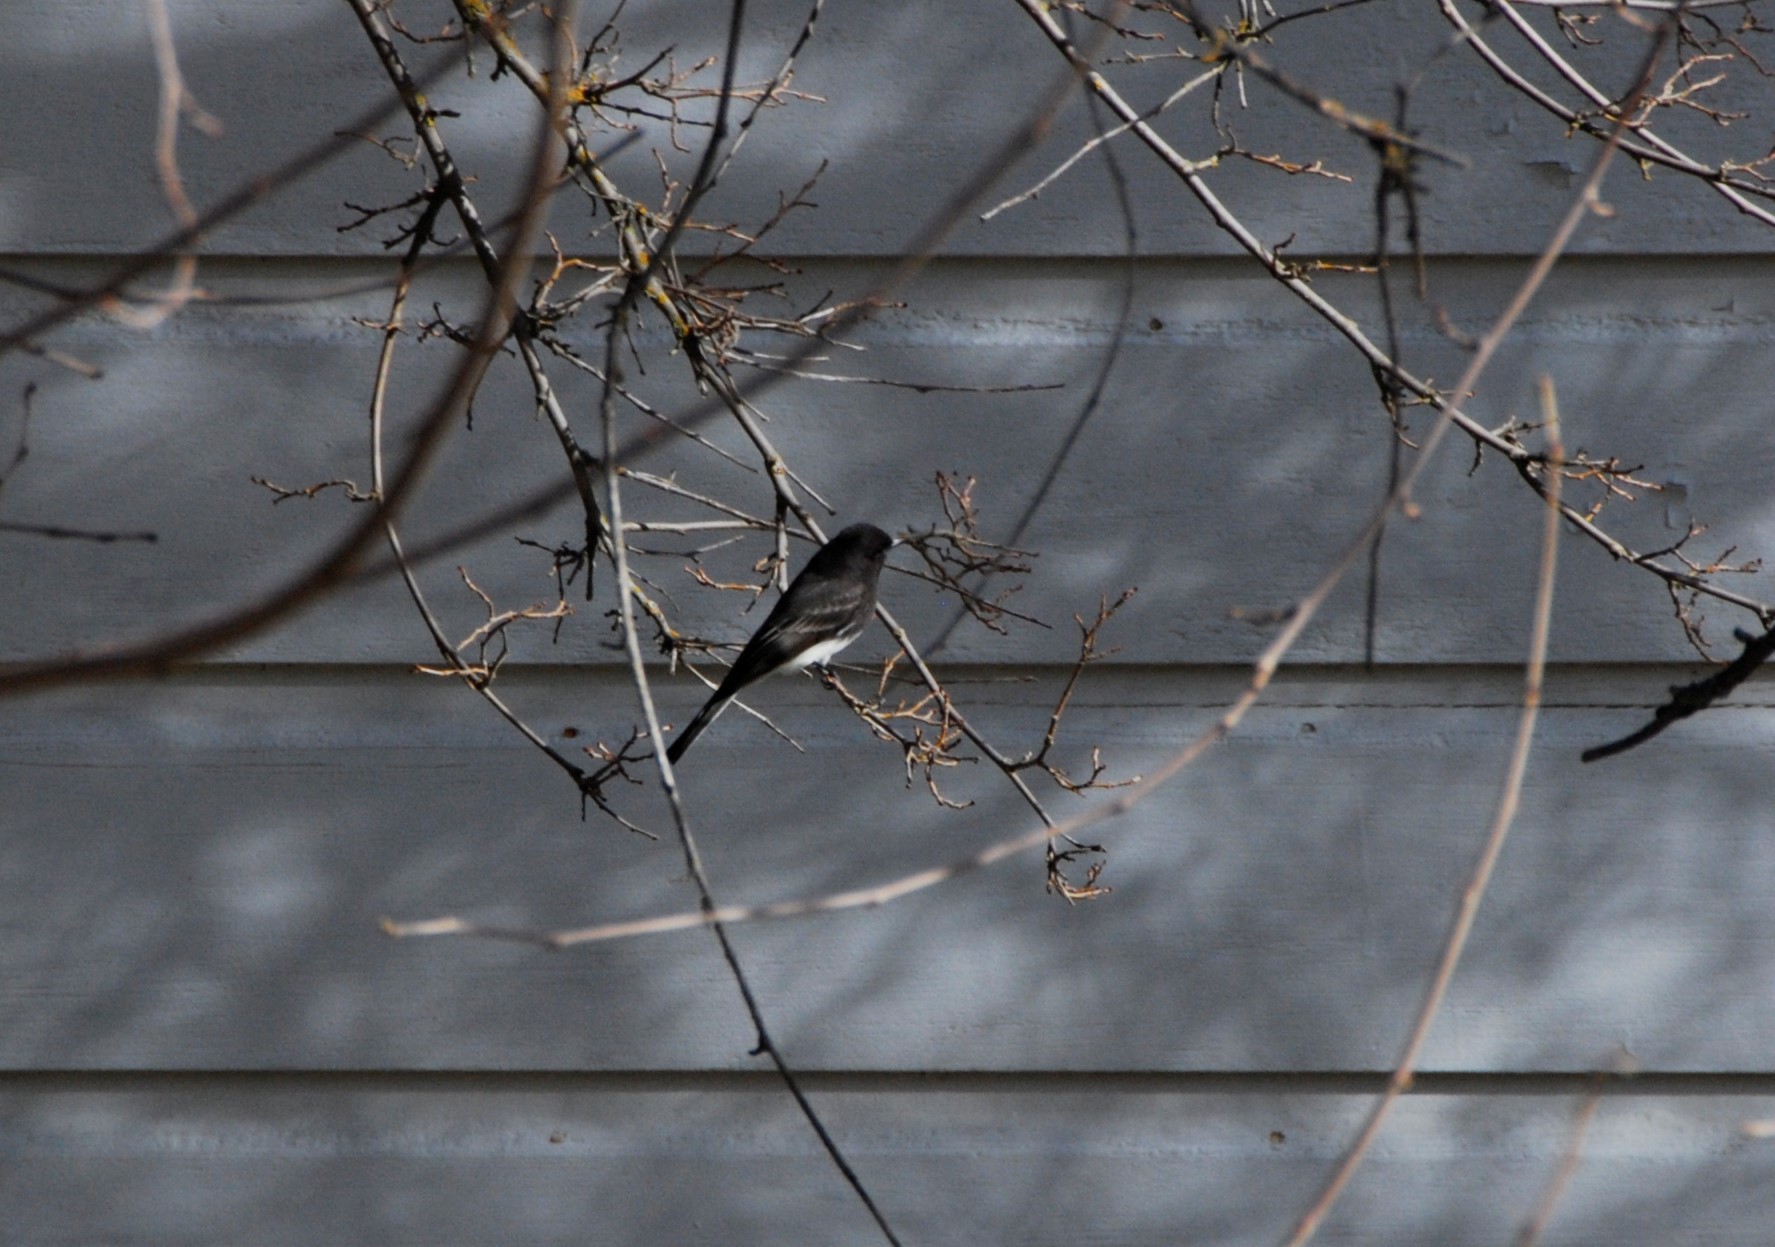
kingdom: Animalia
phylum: Chordata
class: Aves
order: Passeriformes
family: Tyrannidae
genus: Sayornis
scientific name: Sayornis nigricans
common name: Black phoebe
